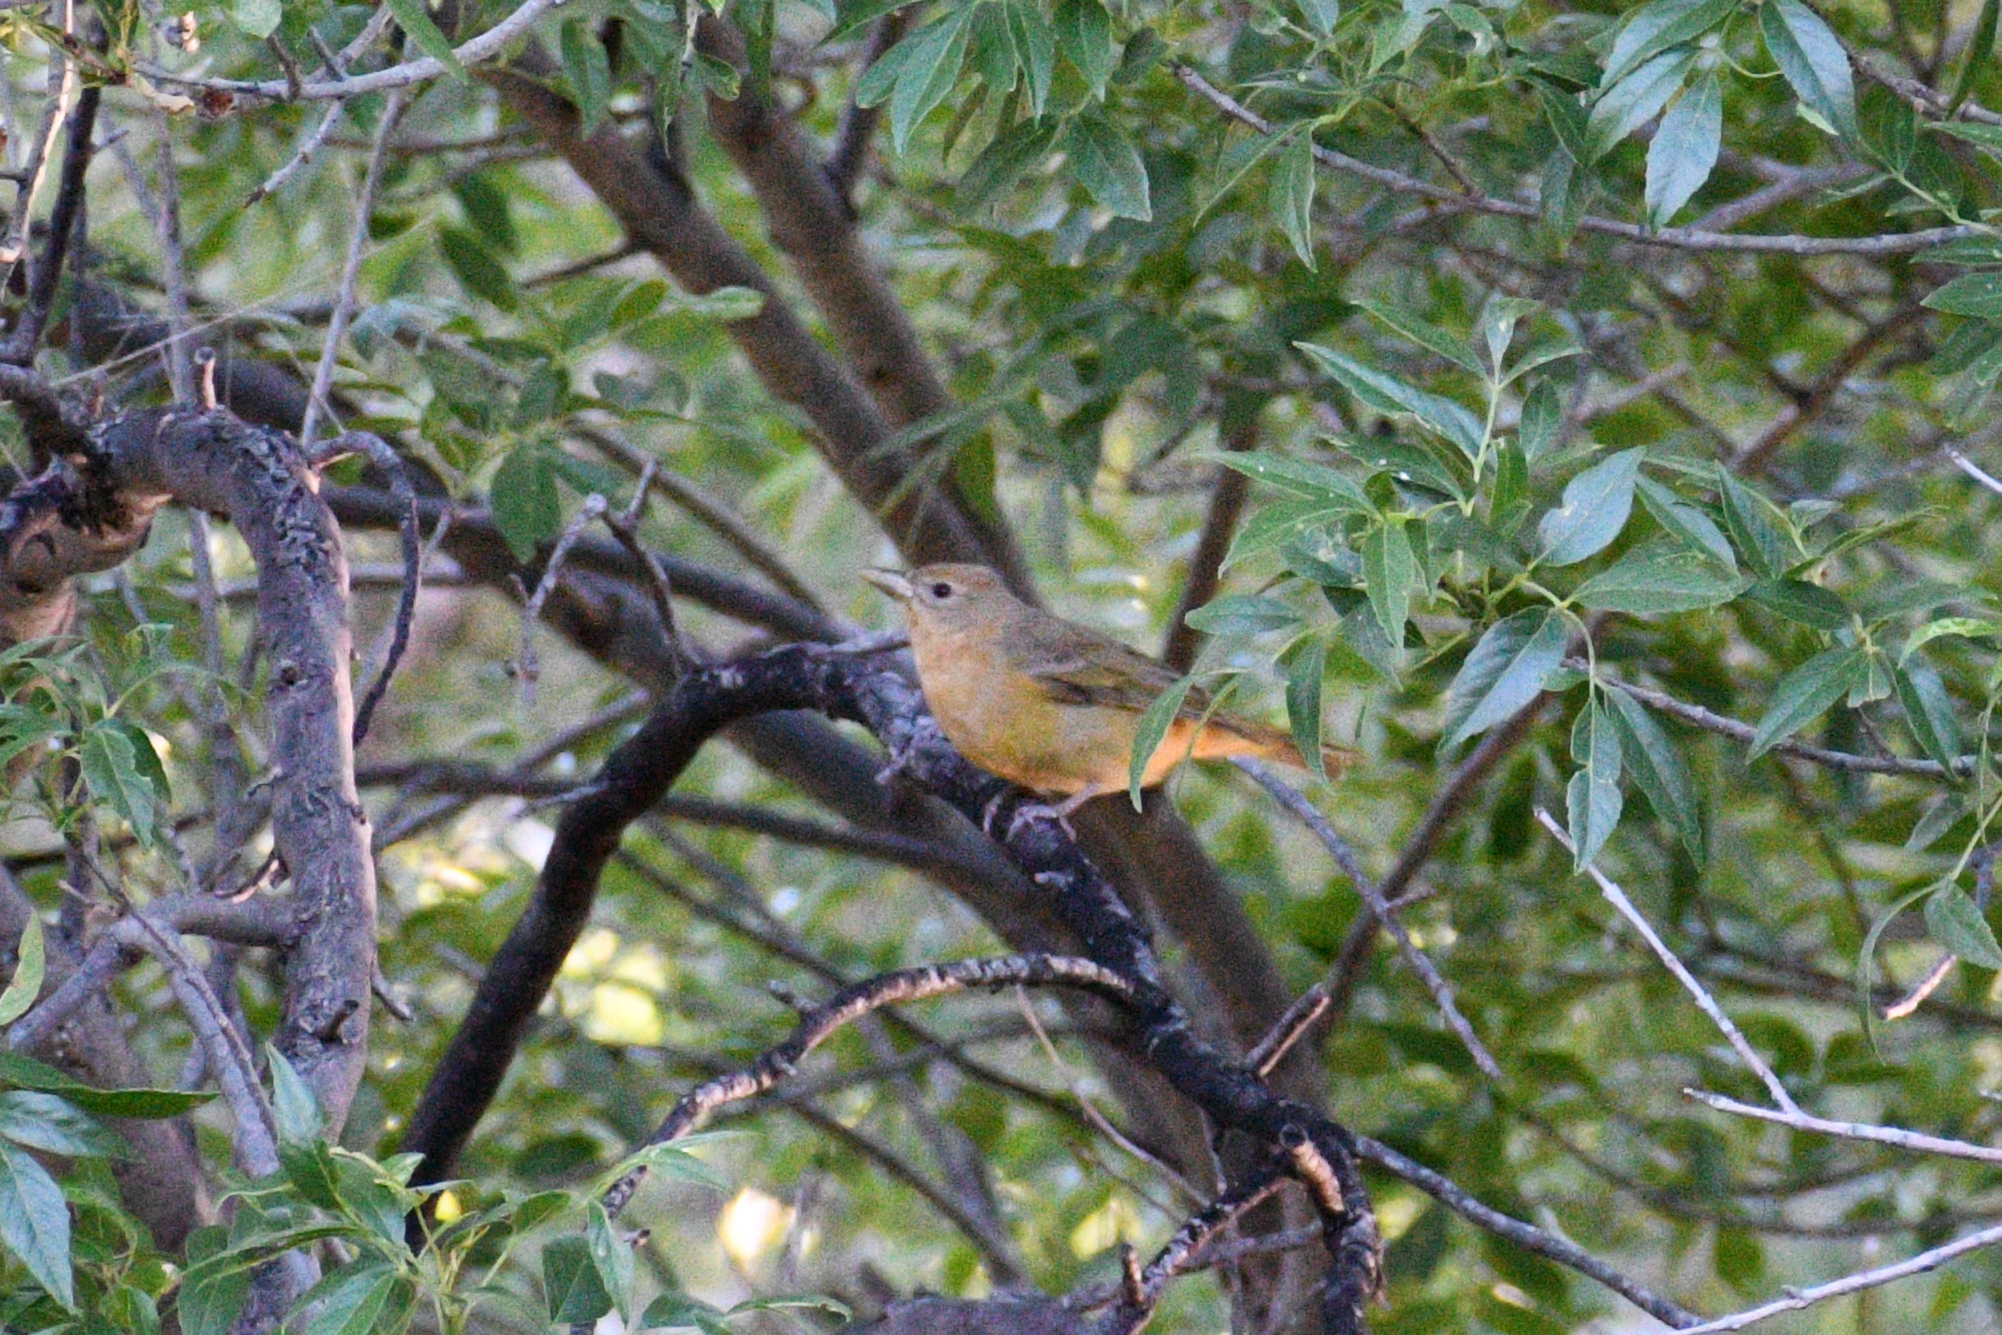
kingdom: Animalia
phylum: Chordata
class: Aves
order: Passeriformes
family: Cardinalidae
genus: Piranga
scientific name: Piranga flava
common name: Red tanager
